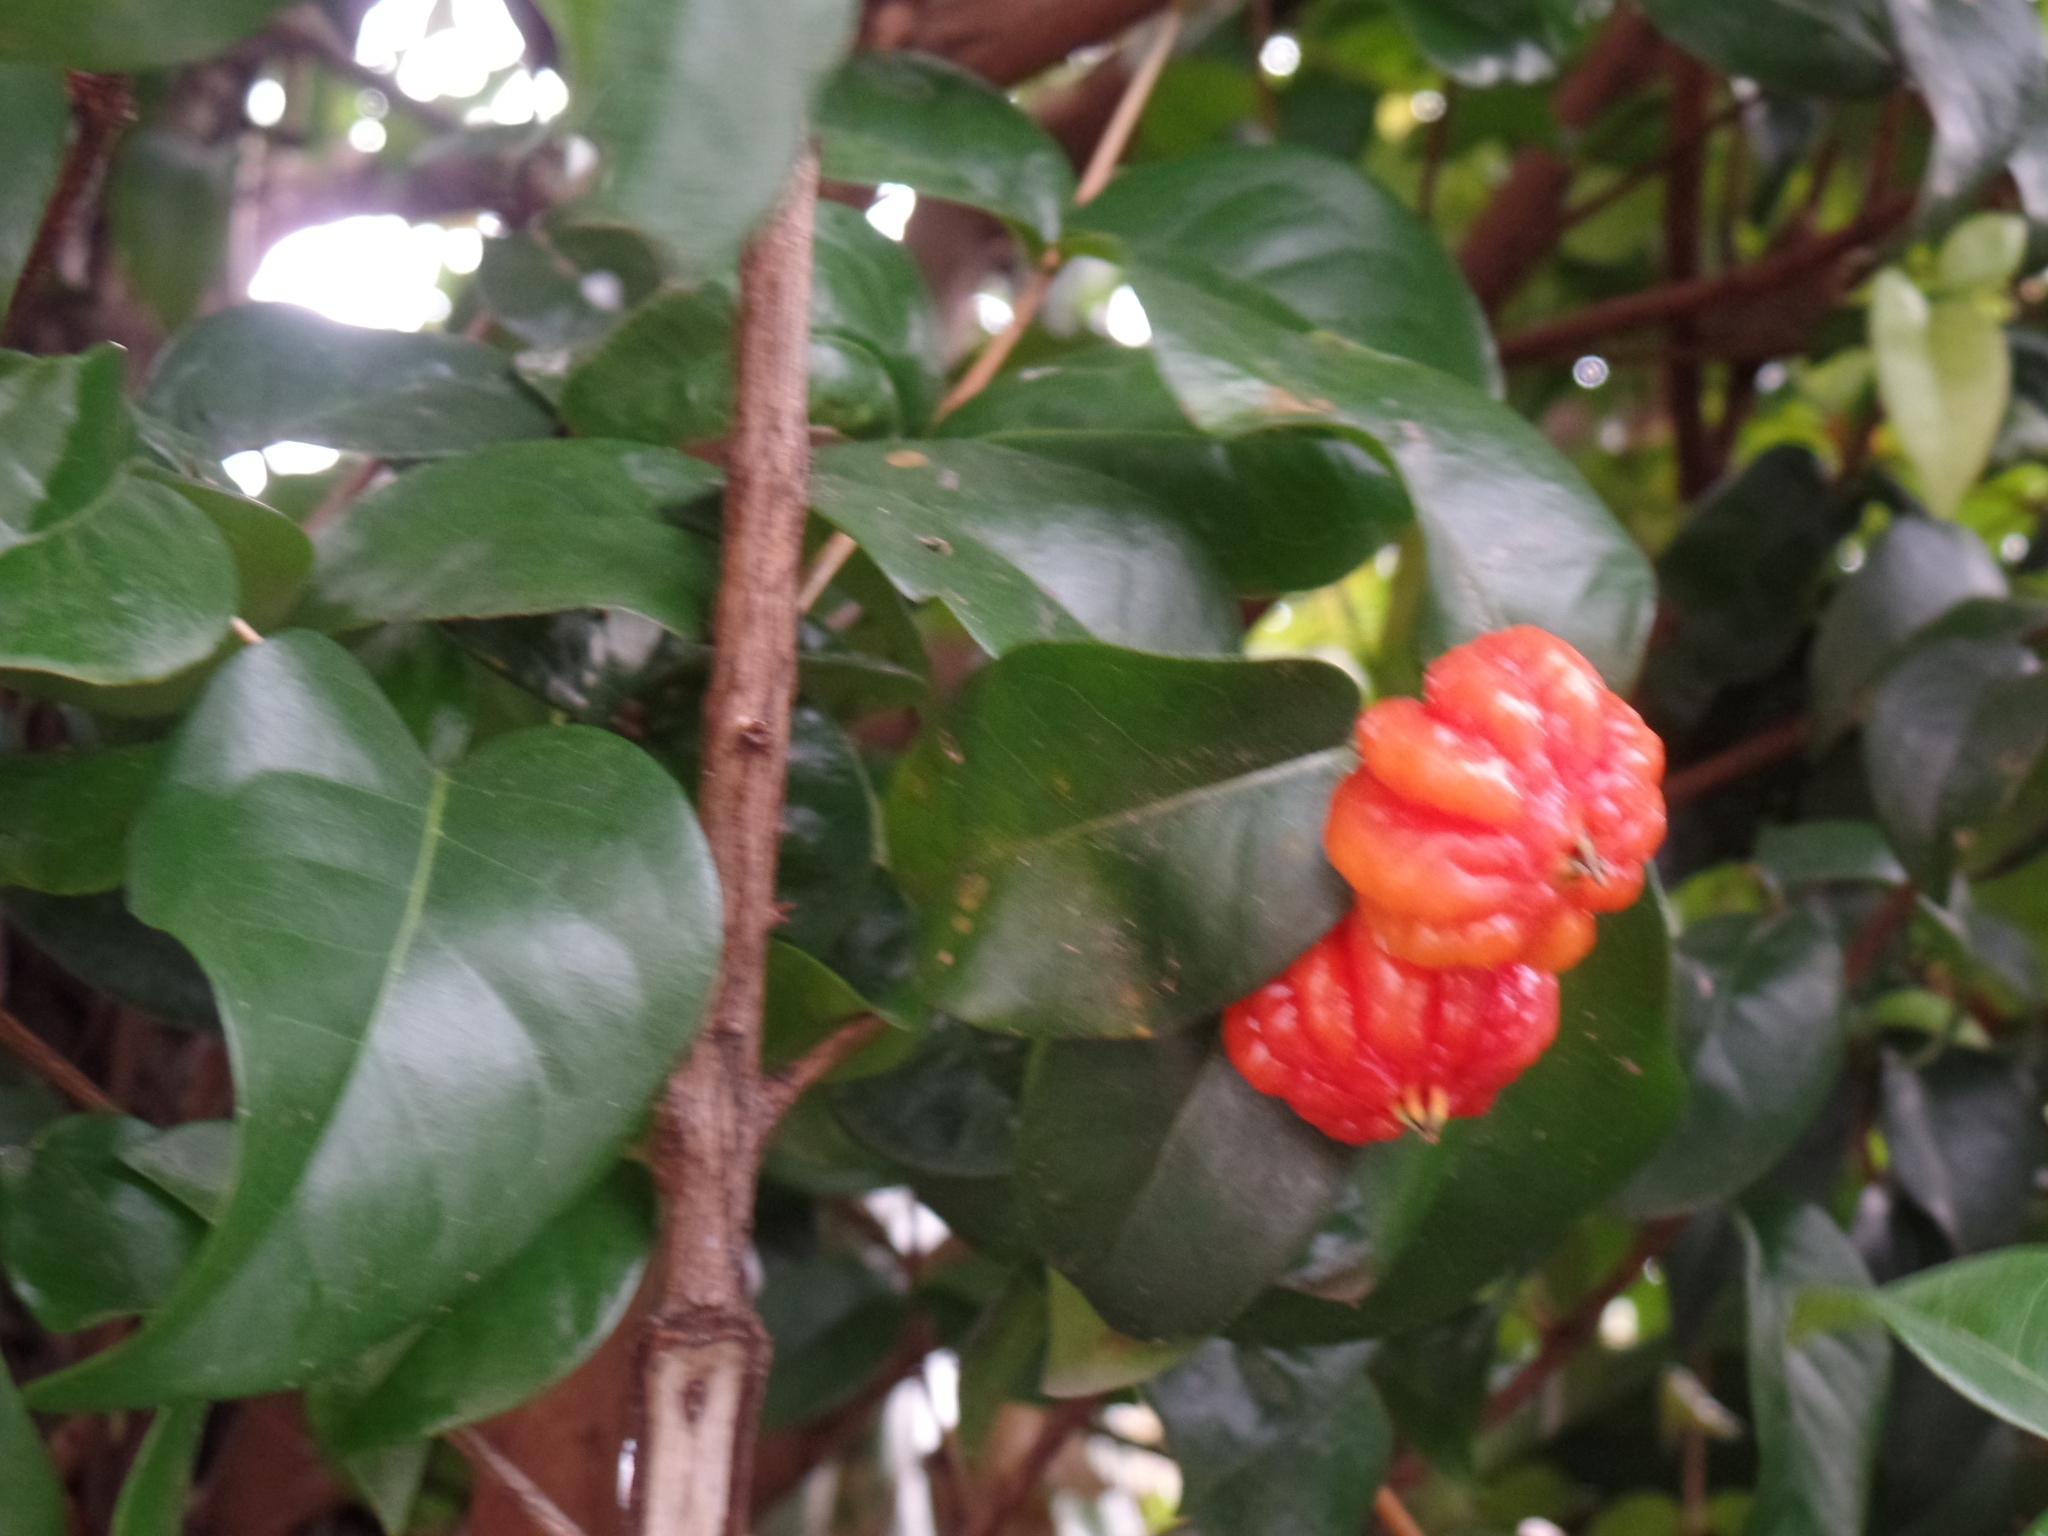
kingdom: Plantae
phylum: Tracheophyta
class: Magnoliopsida
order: Myrtales
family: Myrtaceae
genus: Eugenia
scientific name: Eugenia uniflora
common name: Surinam cherry
